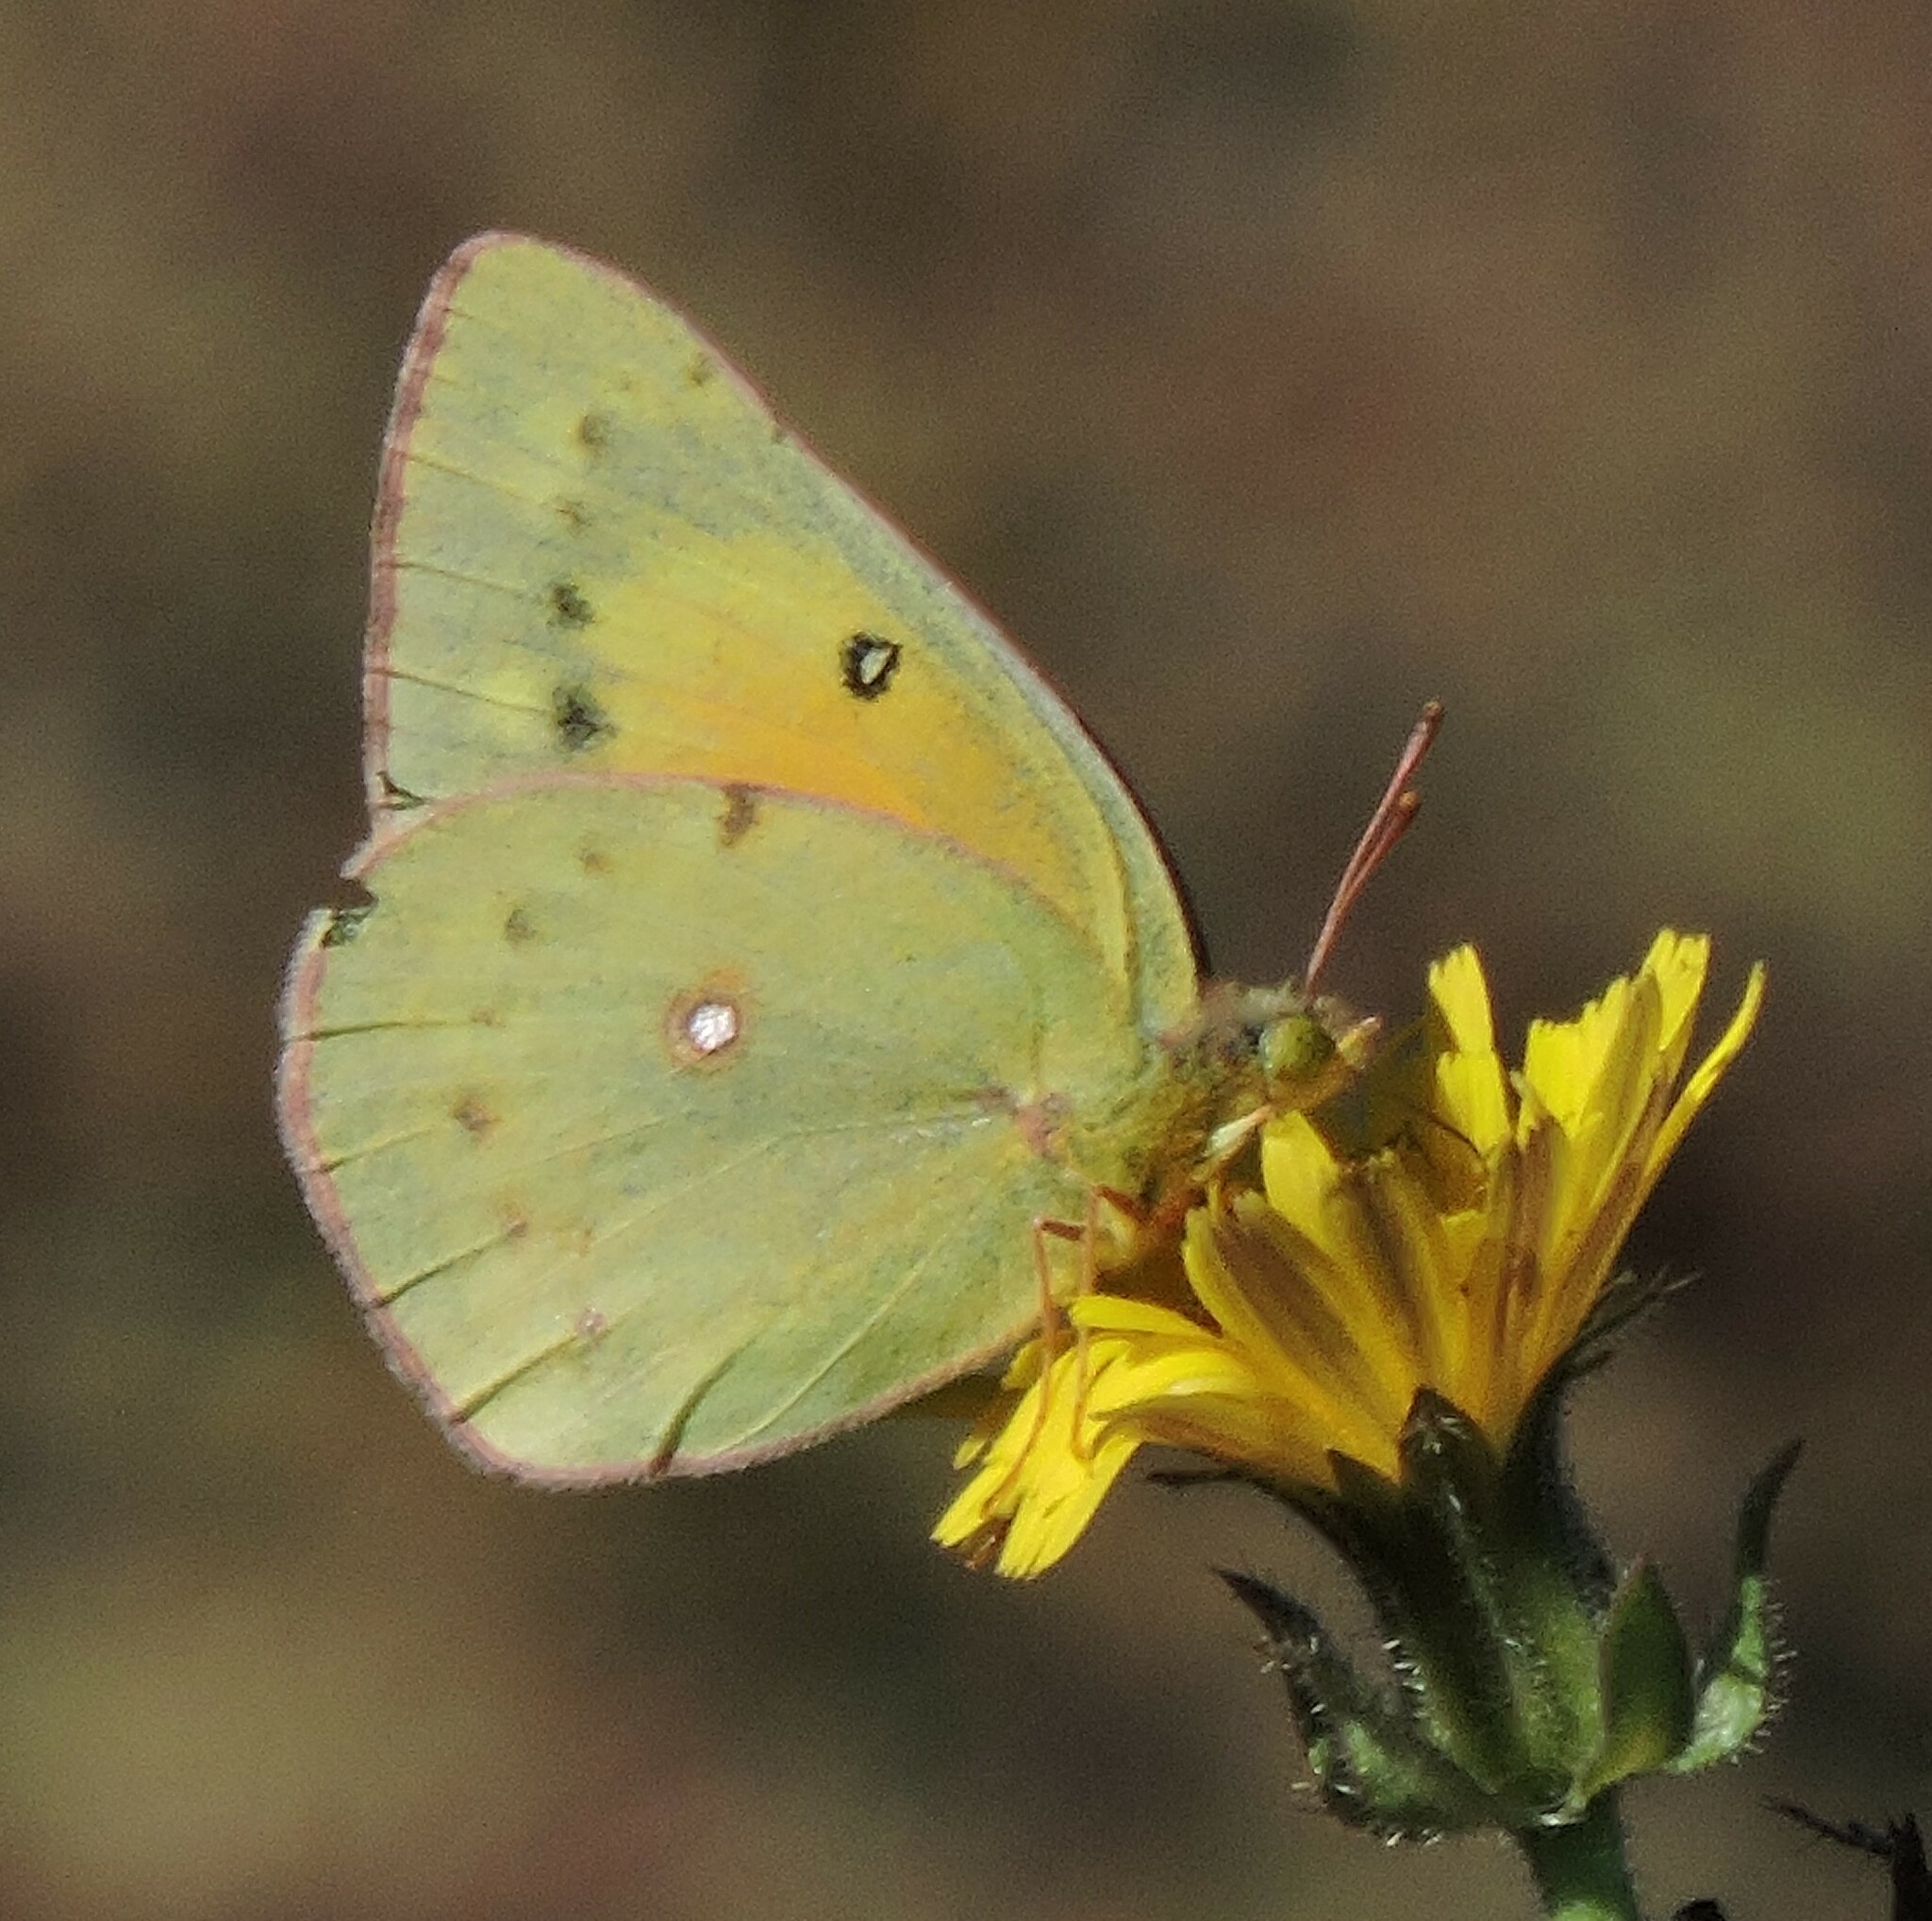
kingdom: Animalia
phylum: Arthropoda
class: Insecta
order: Lepidoptera
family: Pieridae
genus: Colias
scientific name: Colias eurytheme
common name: Alfalfa butterfly
